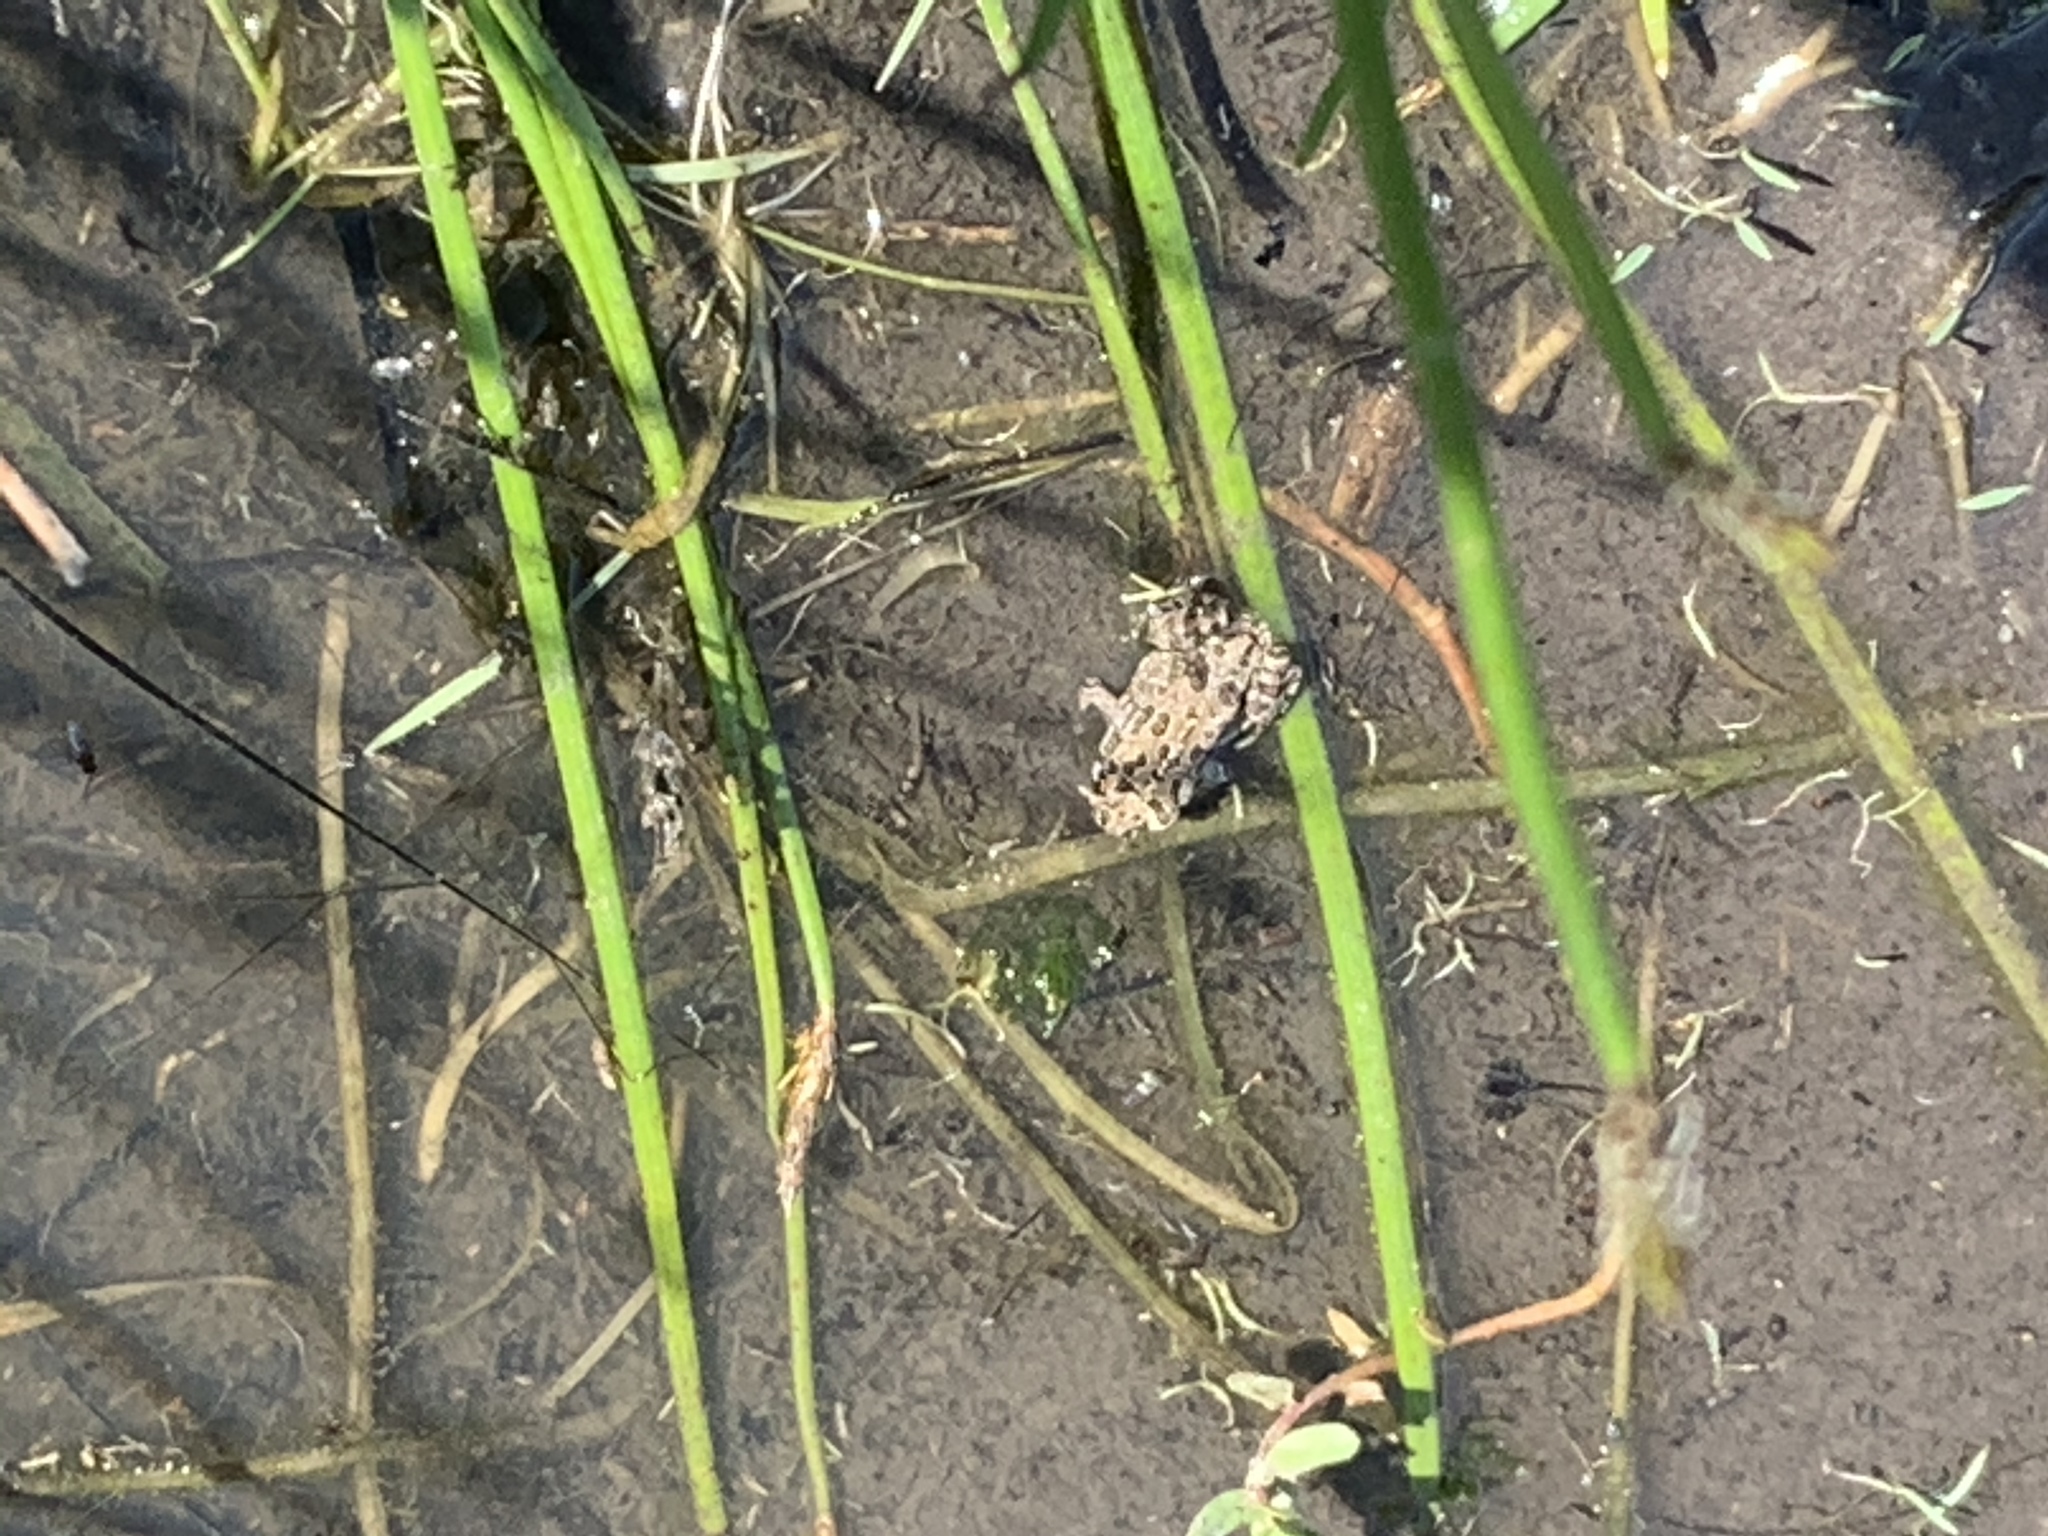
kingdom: Animalia
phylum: Chordata
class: Amphibia
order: Anura
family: Bufonidae
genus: Anaxyrus
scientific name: Anaxyrus boreas
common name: Western toad
